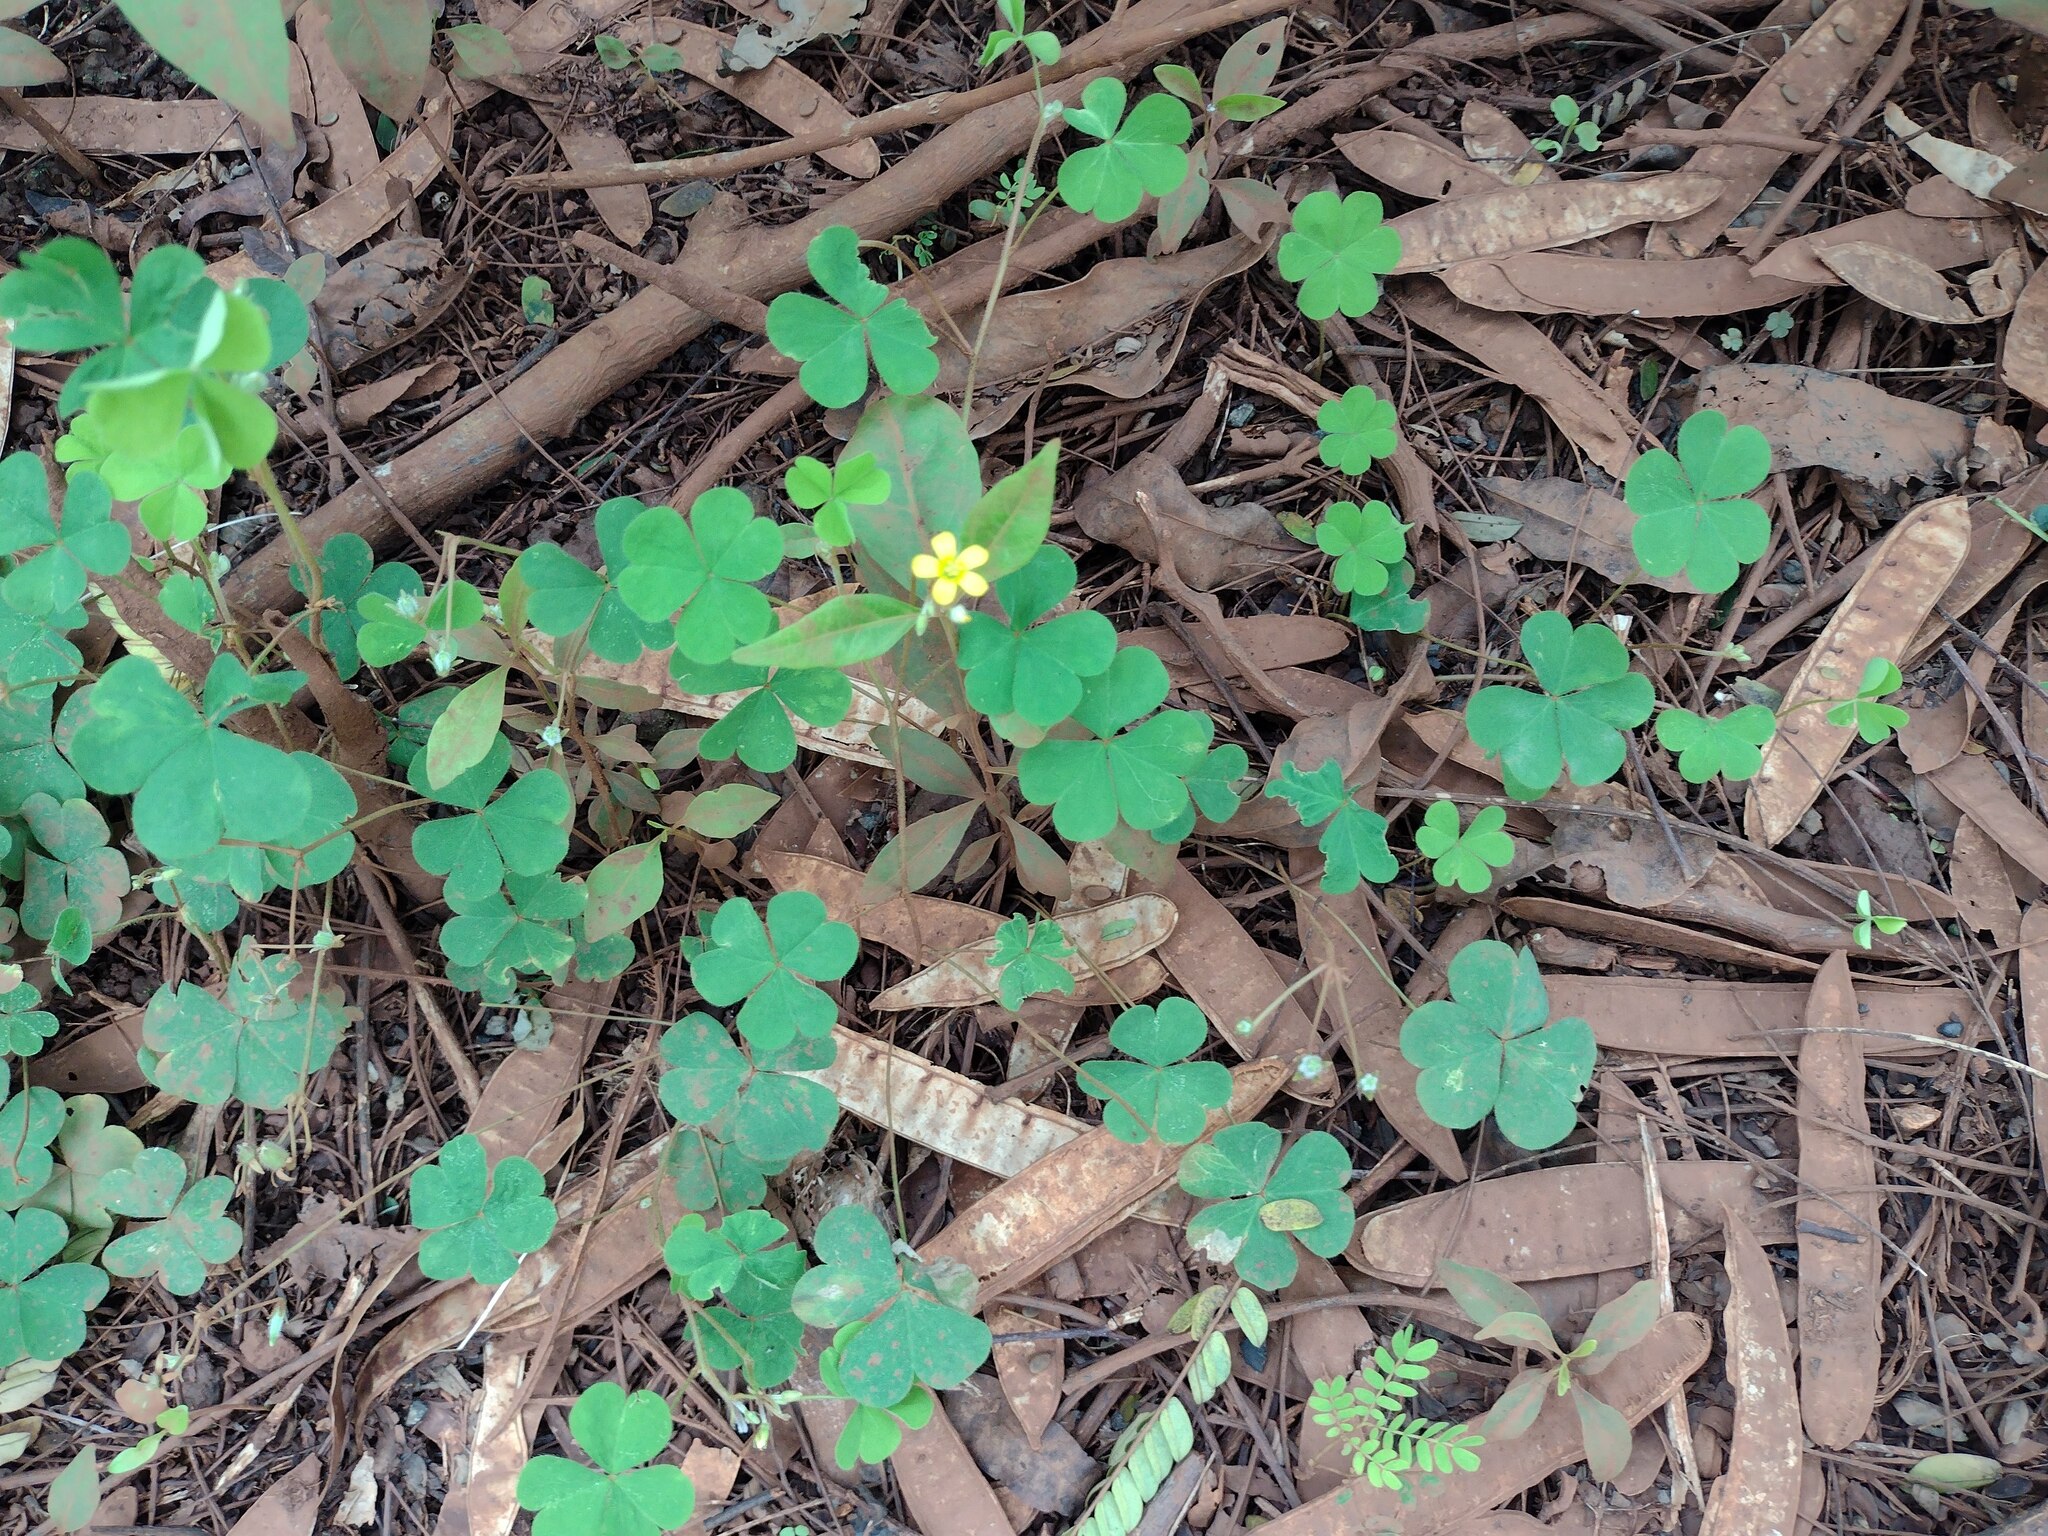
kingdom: Plantae
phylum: Tracheophyta
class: Magnoliopsida
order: Oxalidales
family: Oxalidaceae
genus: Oxalis
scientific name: Oxalis corniculata
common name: Procumbent yellow-sorrel
